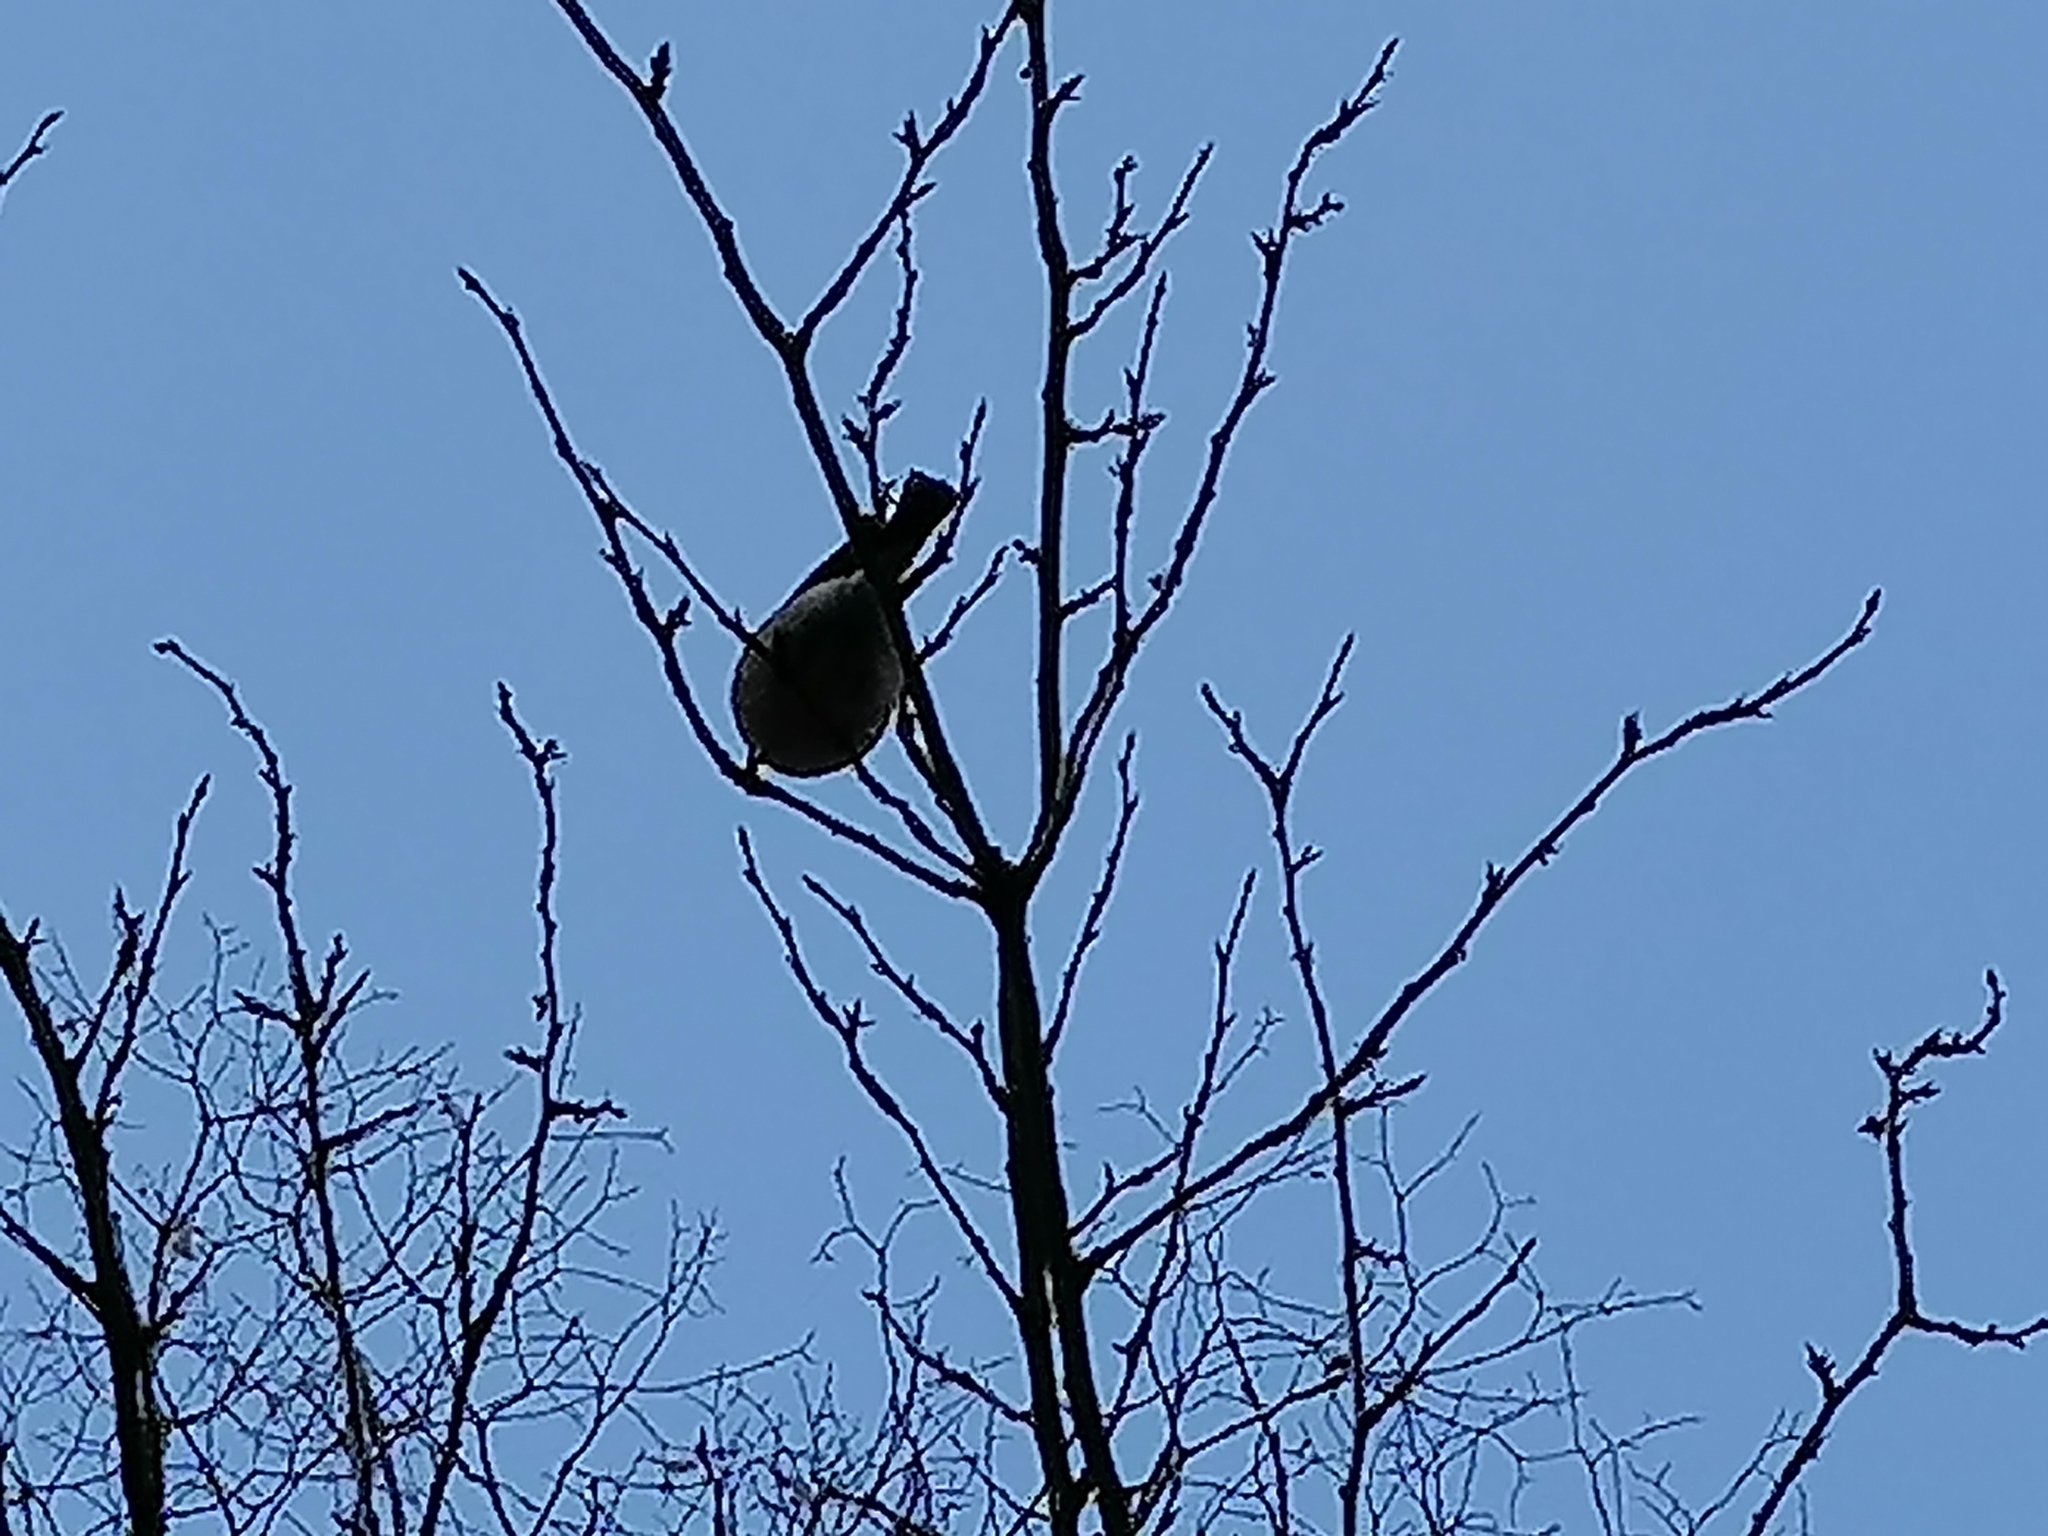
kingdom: Animalia
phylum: Chordata
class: Aves
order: Passeriformes
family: Fringillidae
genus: Pyrrhula
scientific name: Pyrrhula pyrrhula
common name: Eurasian bullfinch
